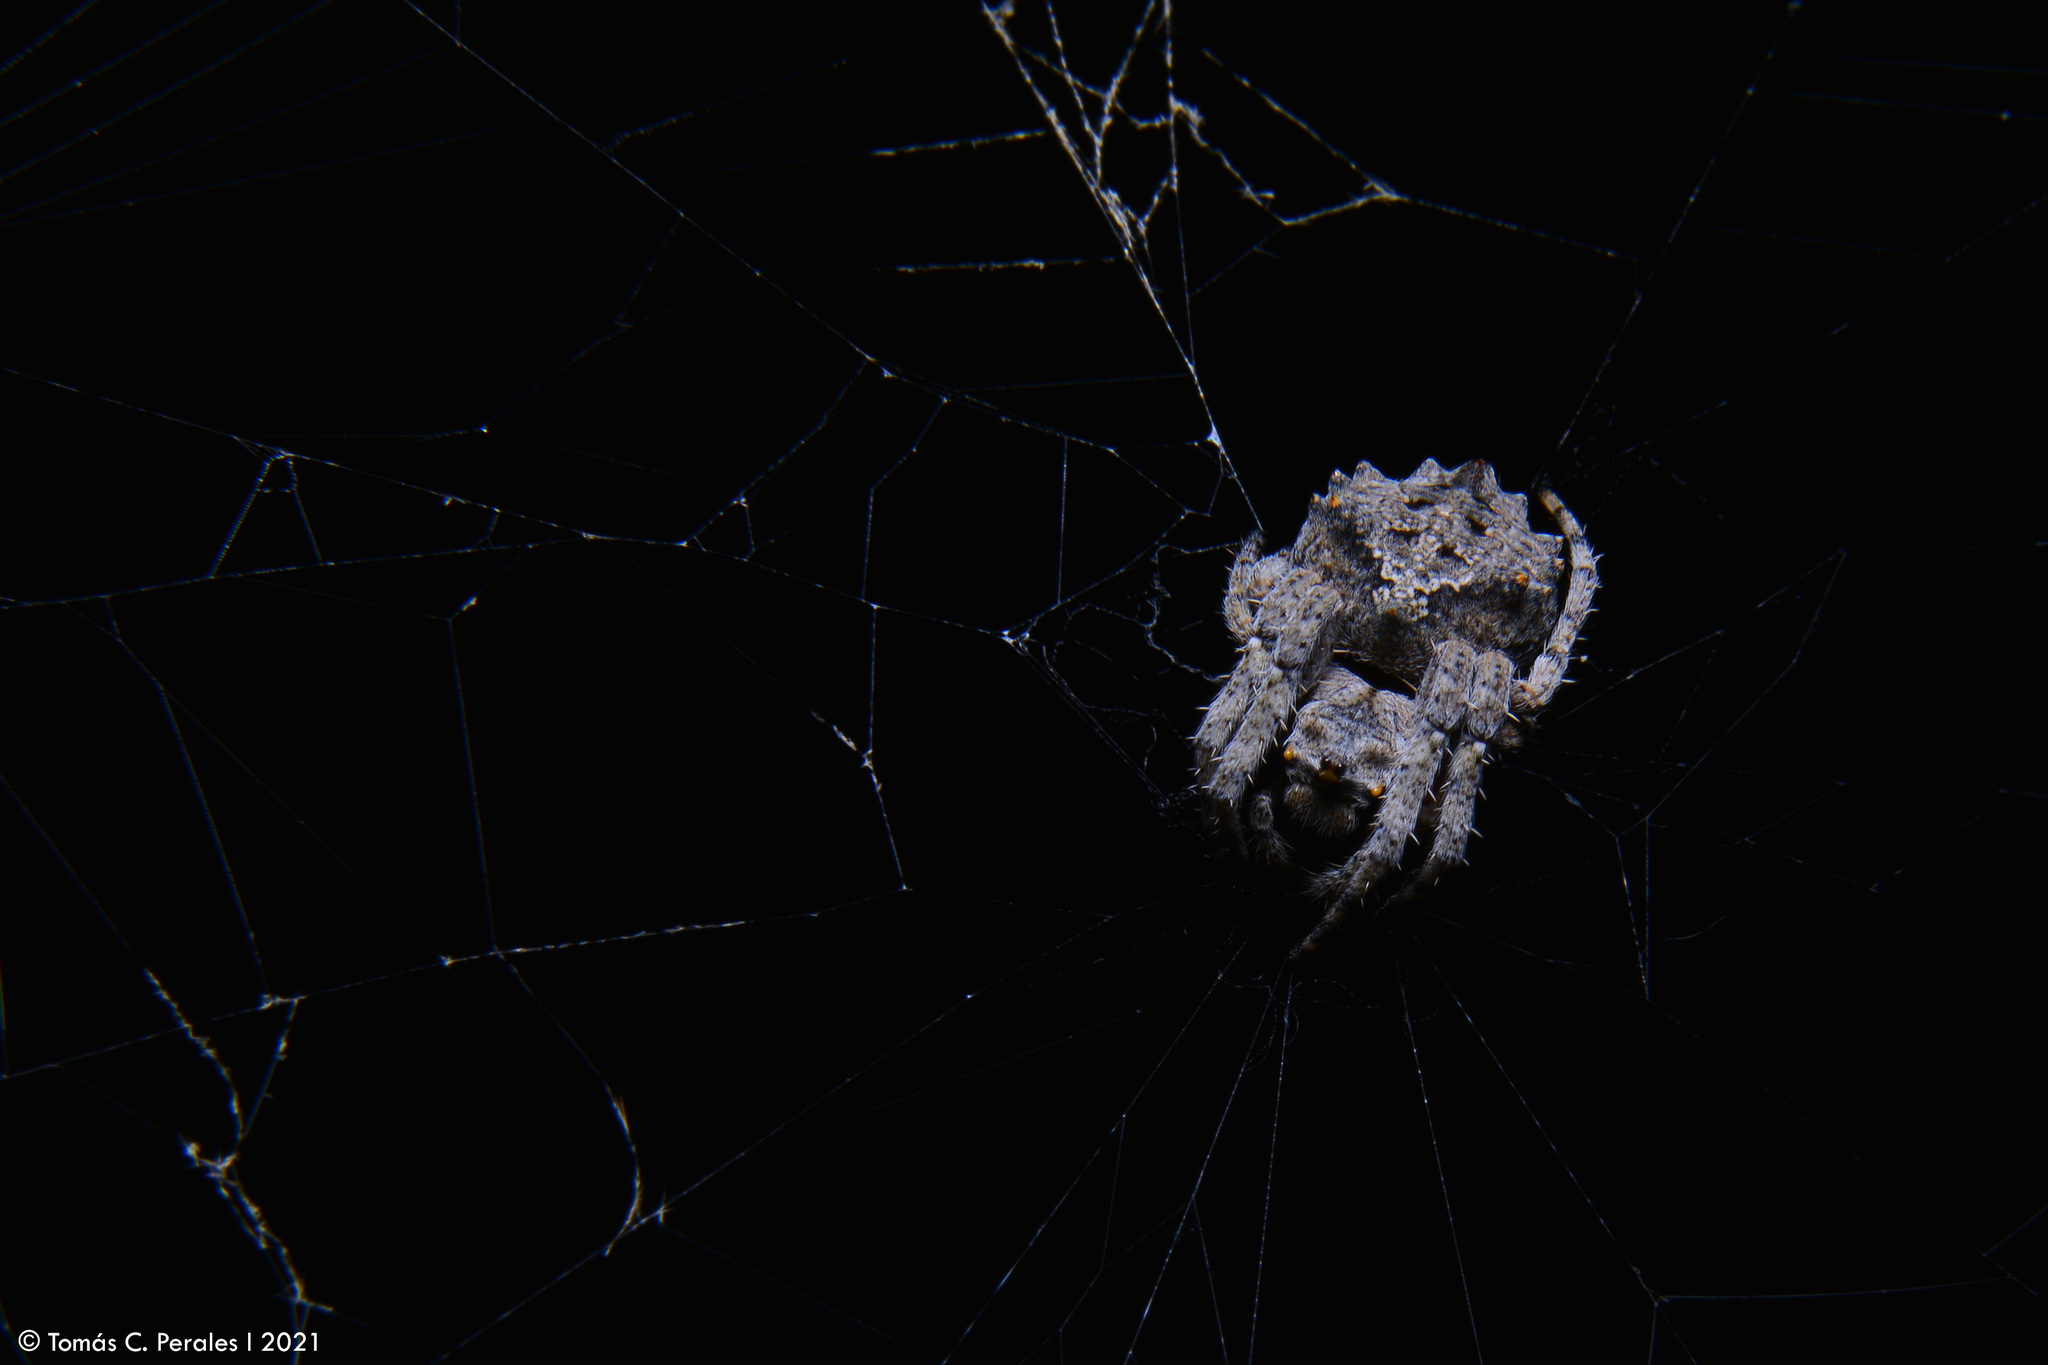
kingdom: Animalia
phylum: Arthropoda
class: Arachnida
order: Araneae
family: Araneidae
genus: Parawixia
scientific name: Parawixia audax
